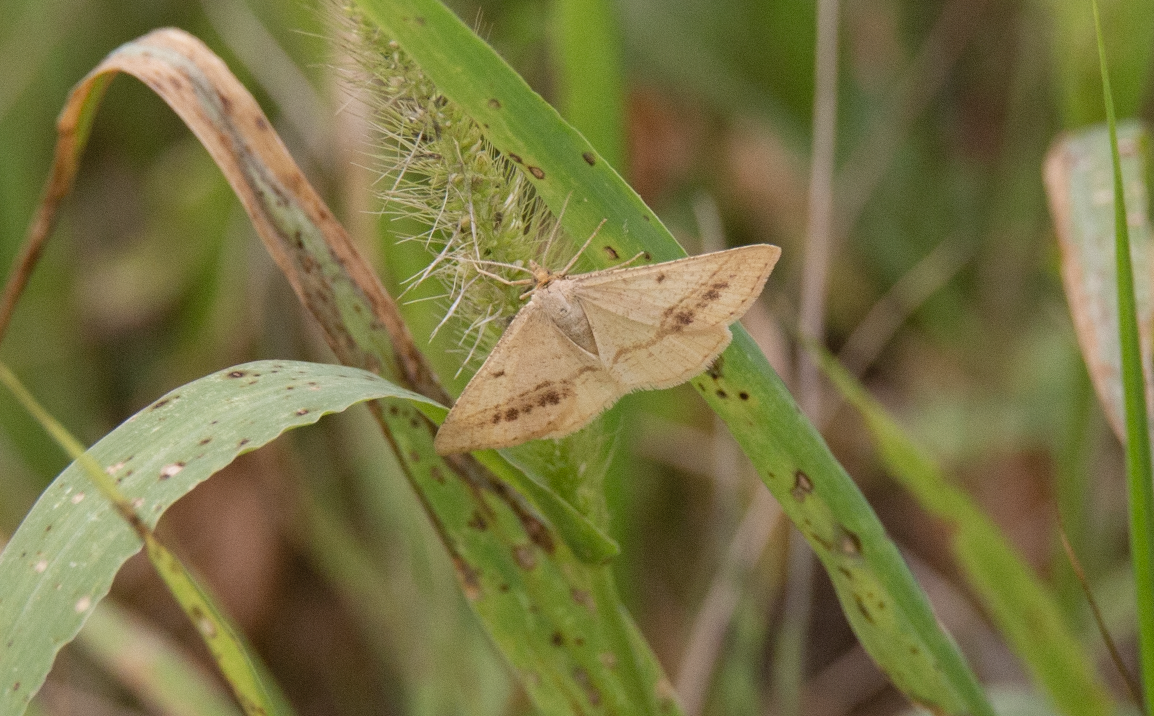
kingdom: Animalia
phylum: Arthropoda
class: Insecta
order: Lepidoptera
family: Geometridae
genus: Tephrina
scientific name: Tephrina arenacearia
